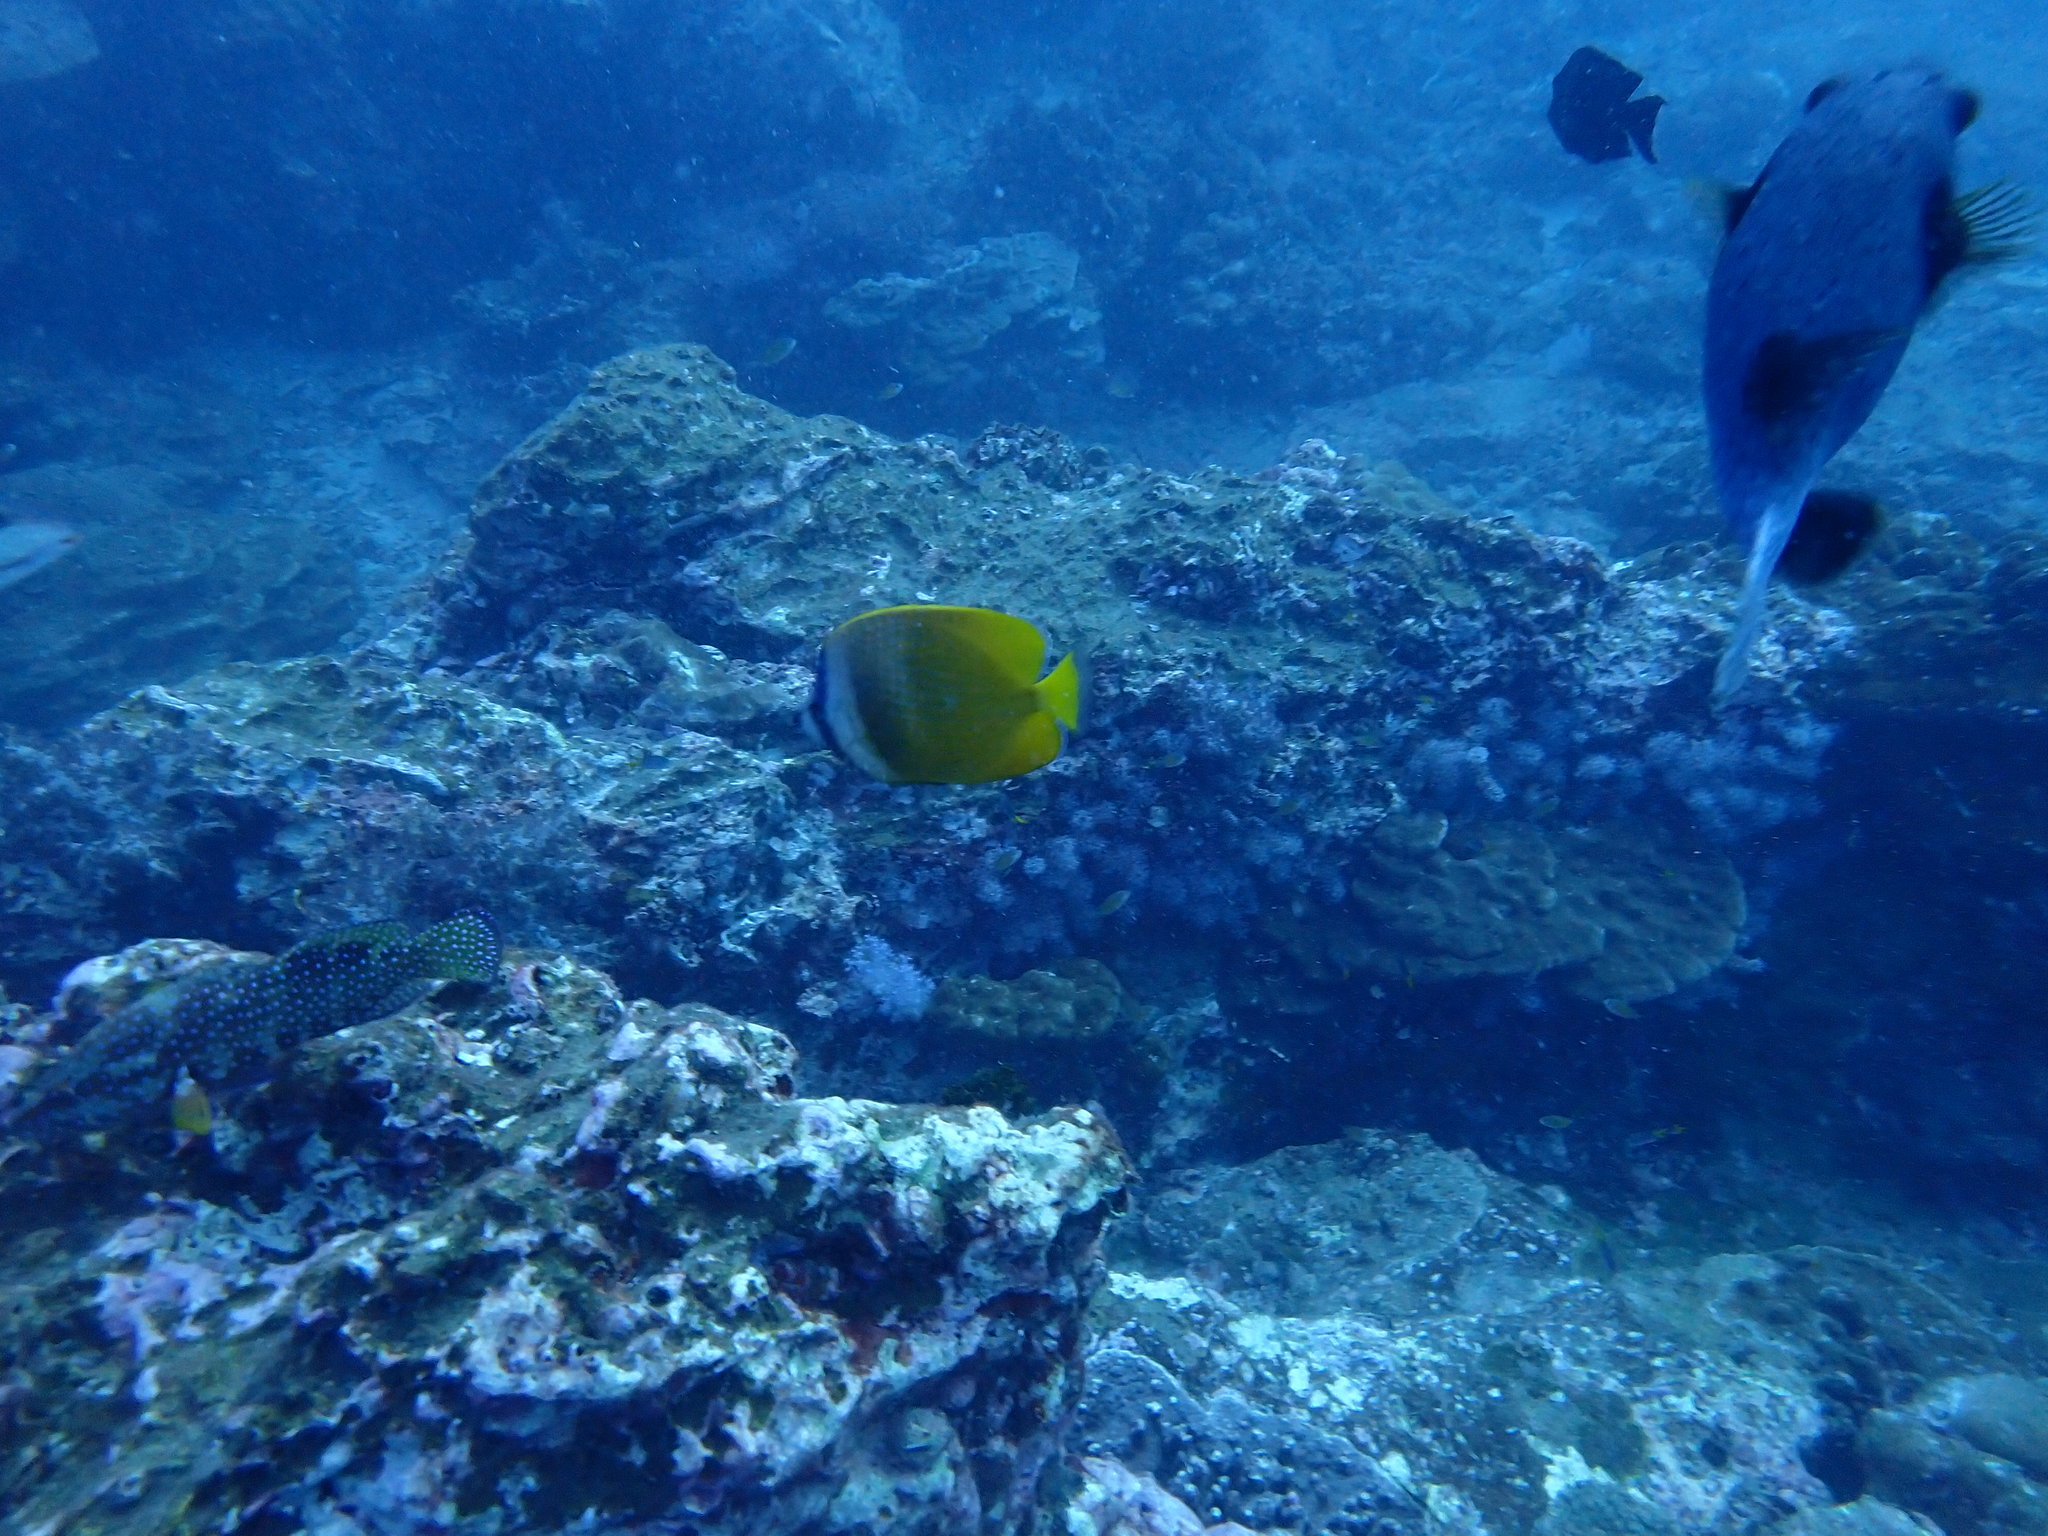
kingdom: Animalia
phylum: Chordata
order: Perciformes
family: Chaetodontidae
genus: Chaetodon
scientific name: Chaetodon kleinii
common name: Klein's butterflyfish
